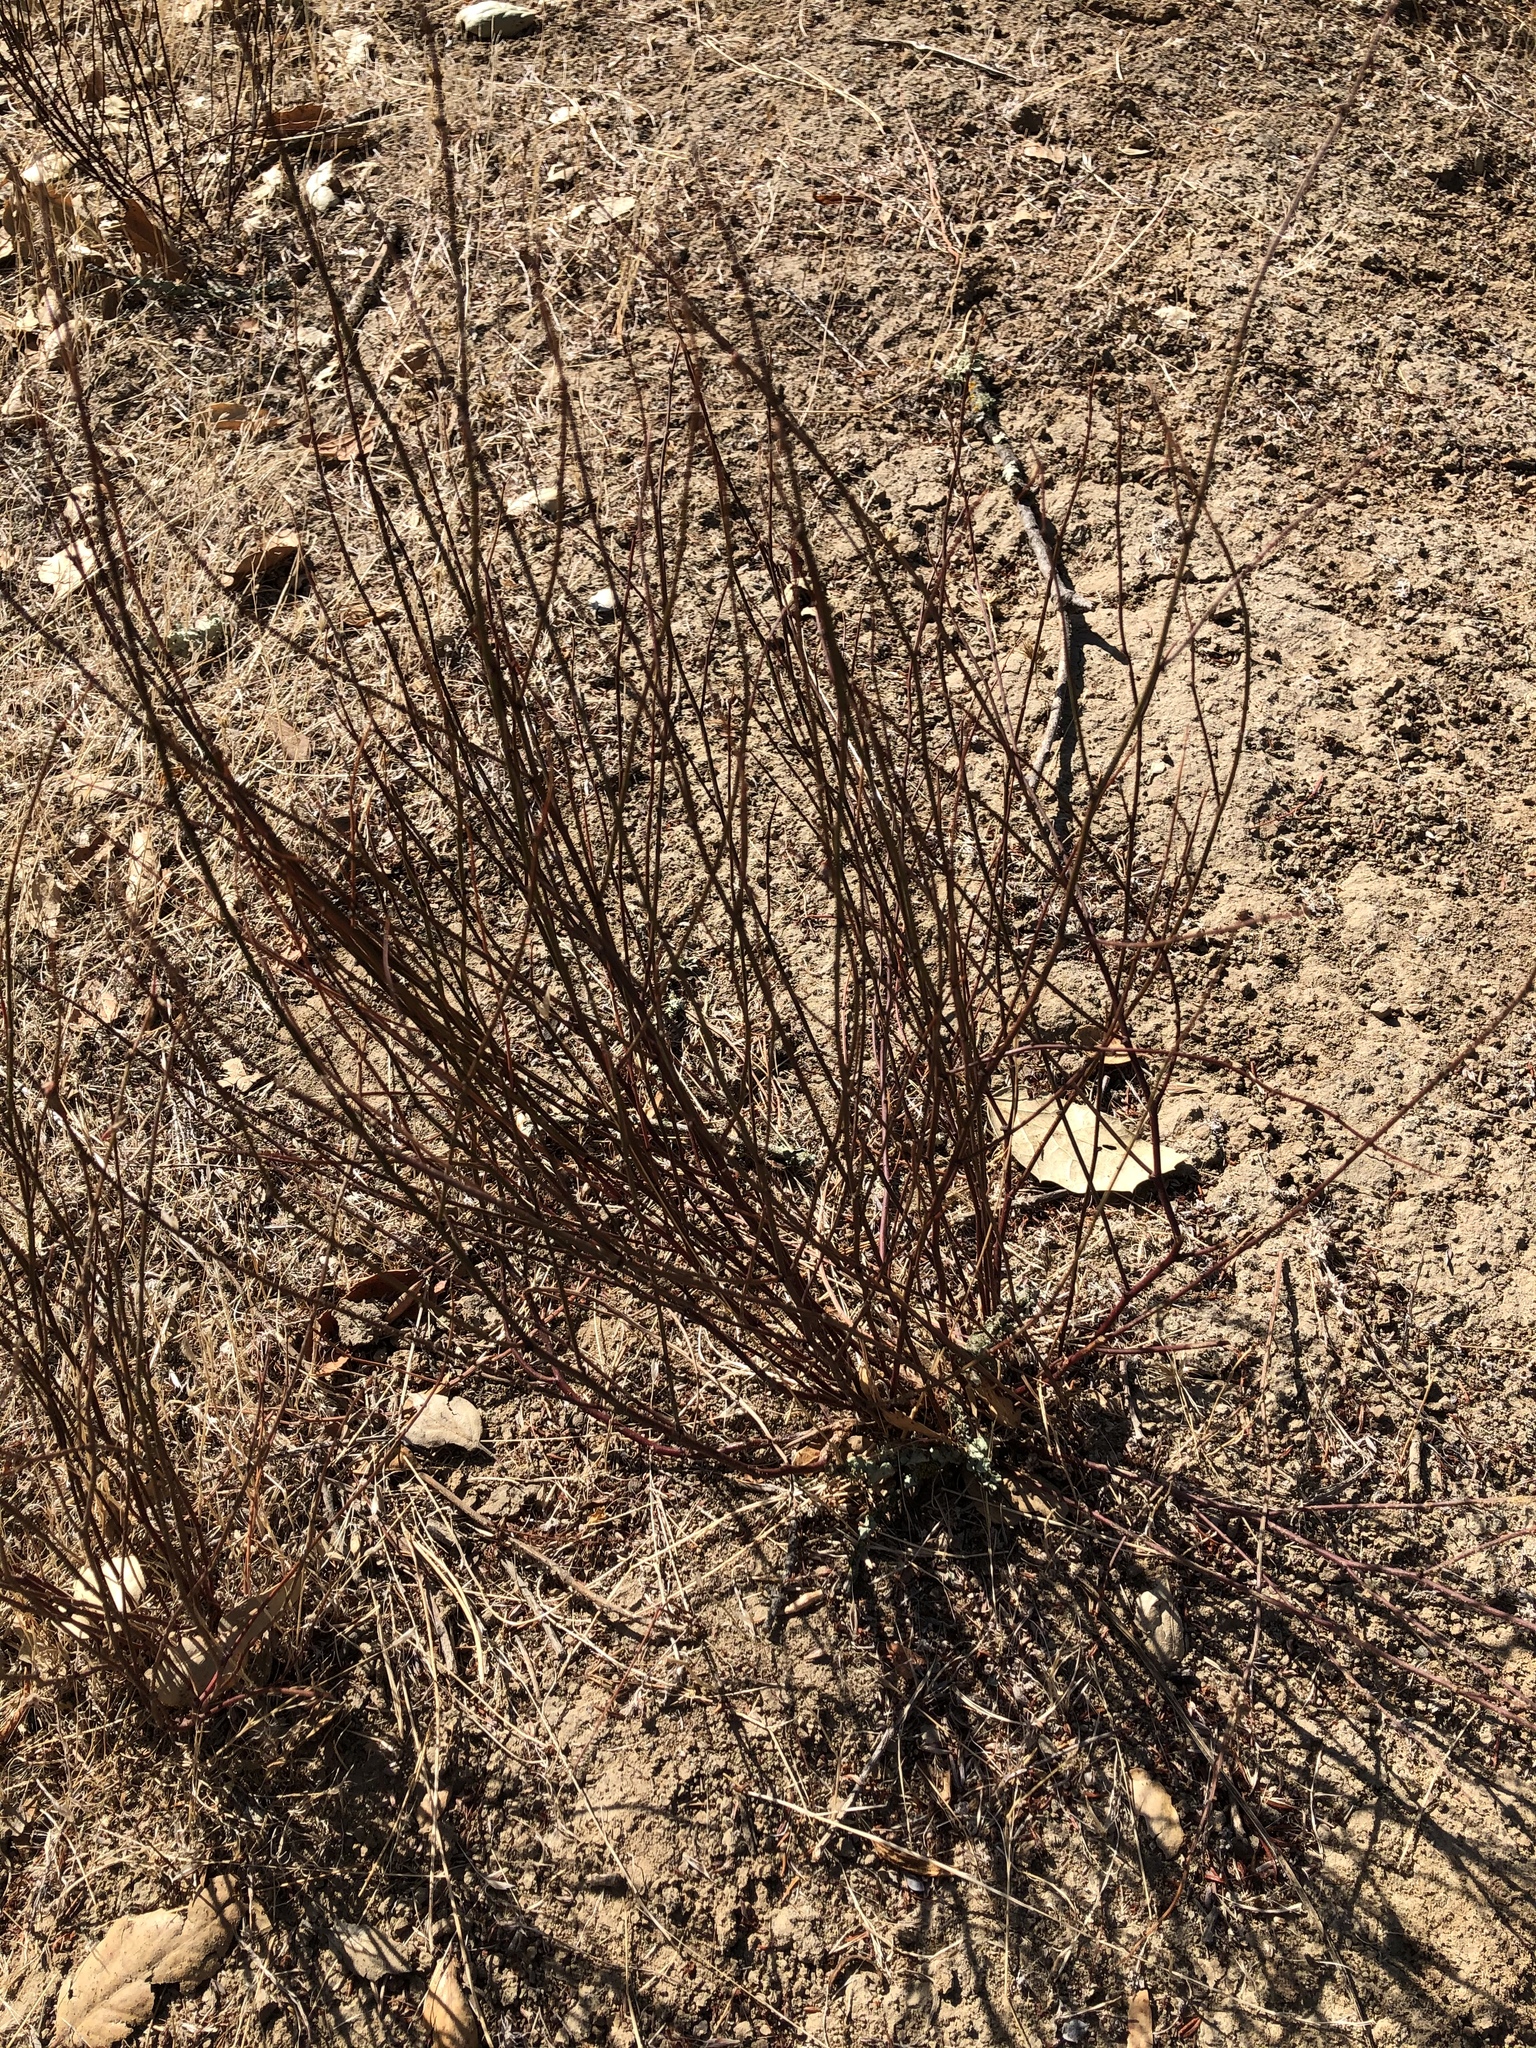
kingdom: Plantae
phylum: Tracheophyta
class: Magnoliopsida
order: Fabales
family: Fabaceae
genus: Acmispon
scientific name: Acmispon glaber
